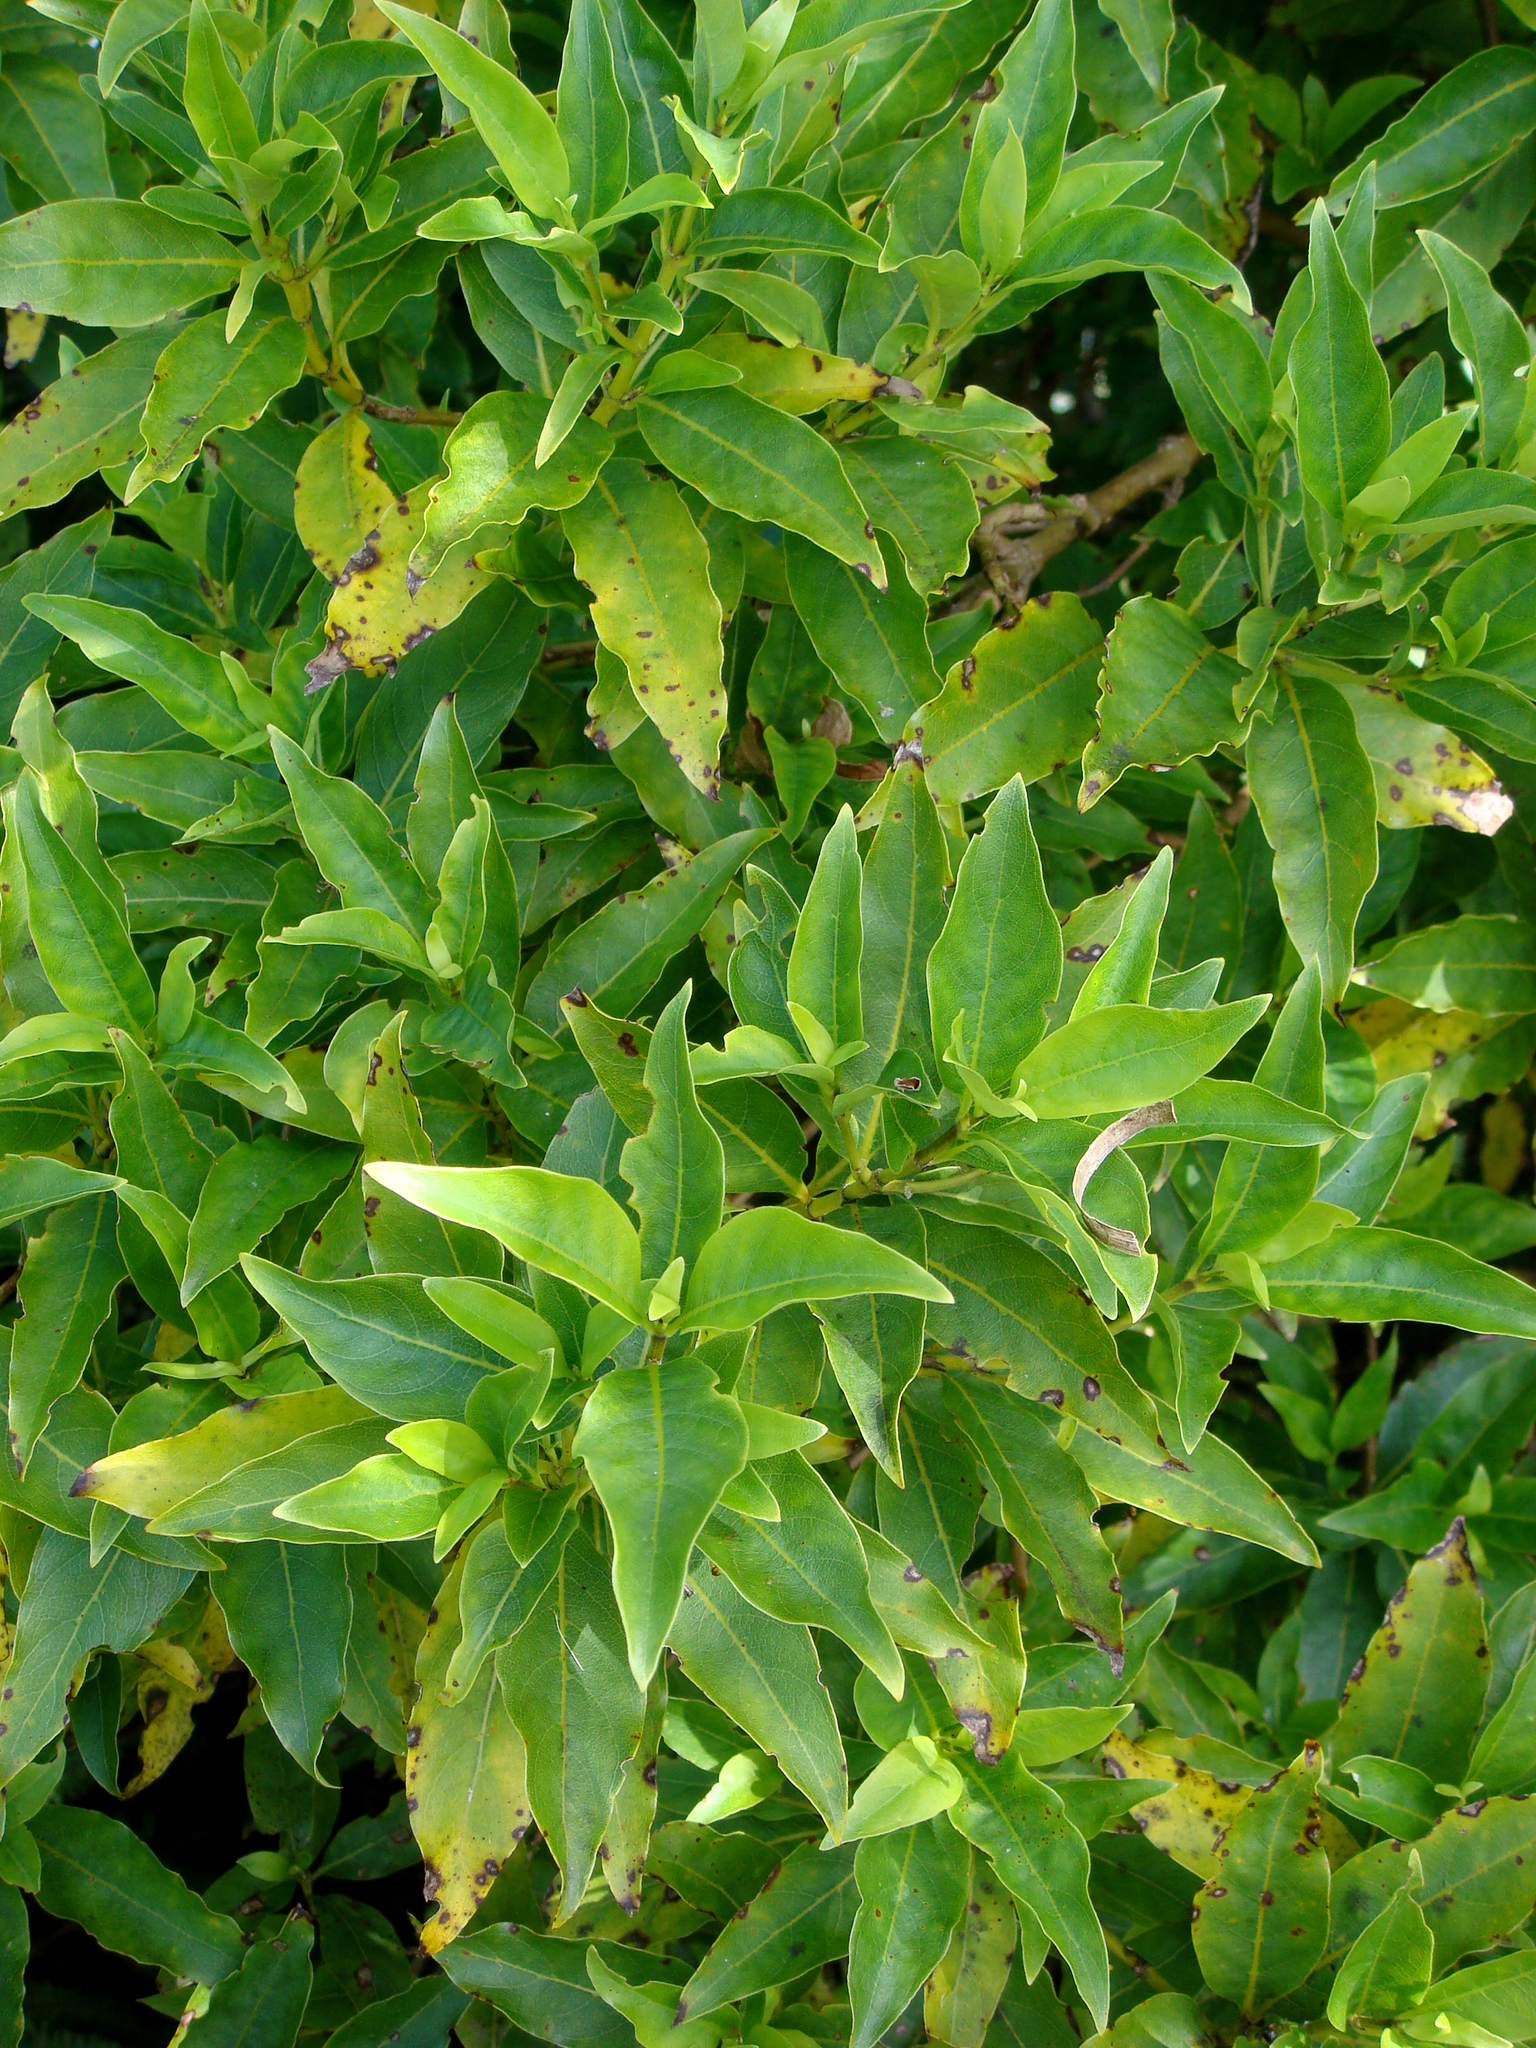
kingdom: Plantae
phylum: Tracheophyta
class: Magnoliopsida
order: Gentianales
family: Rubiaceae
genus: Coprosma
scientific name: Coprosma acutifolia
